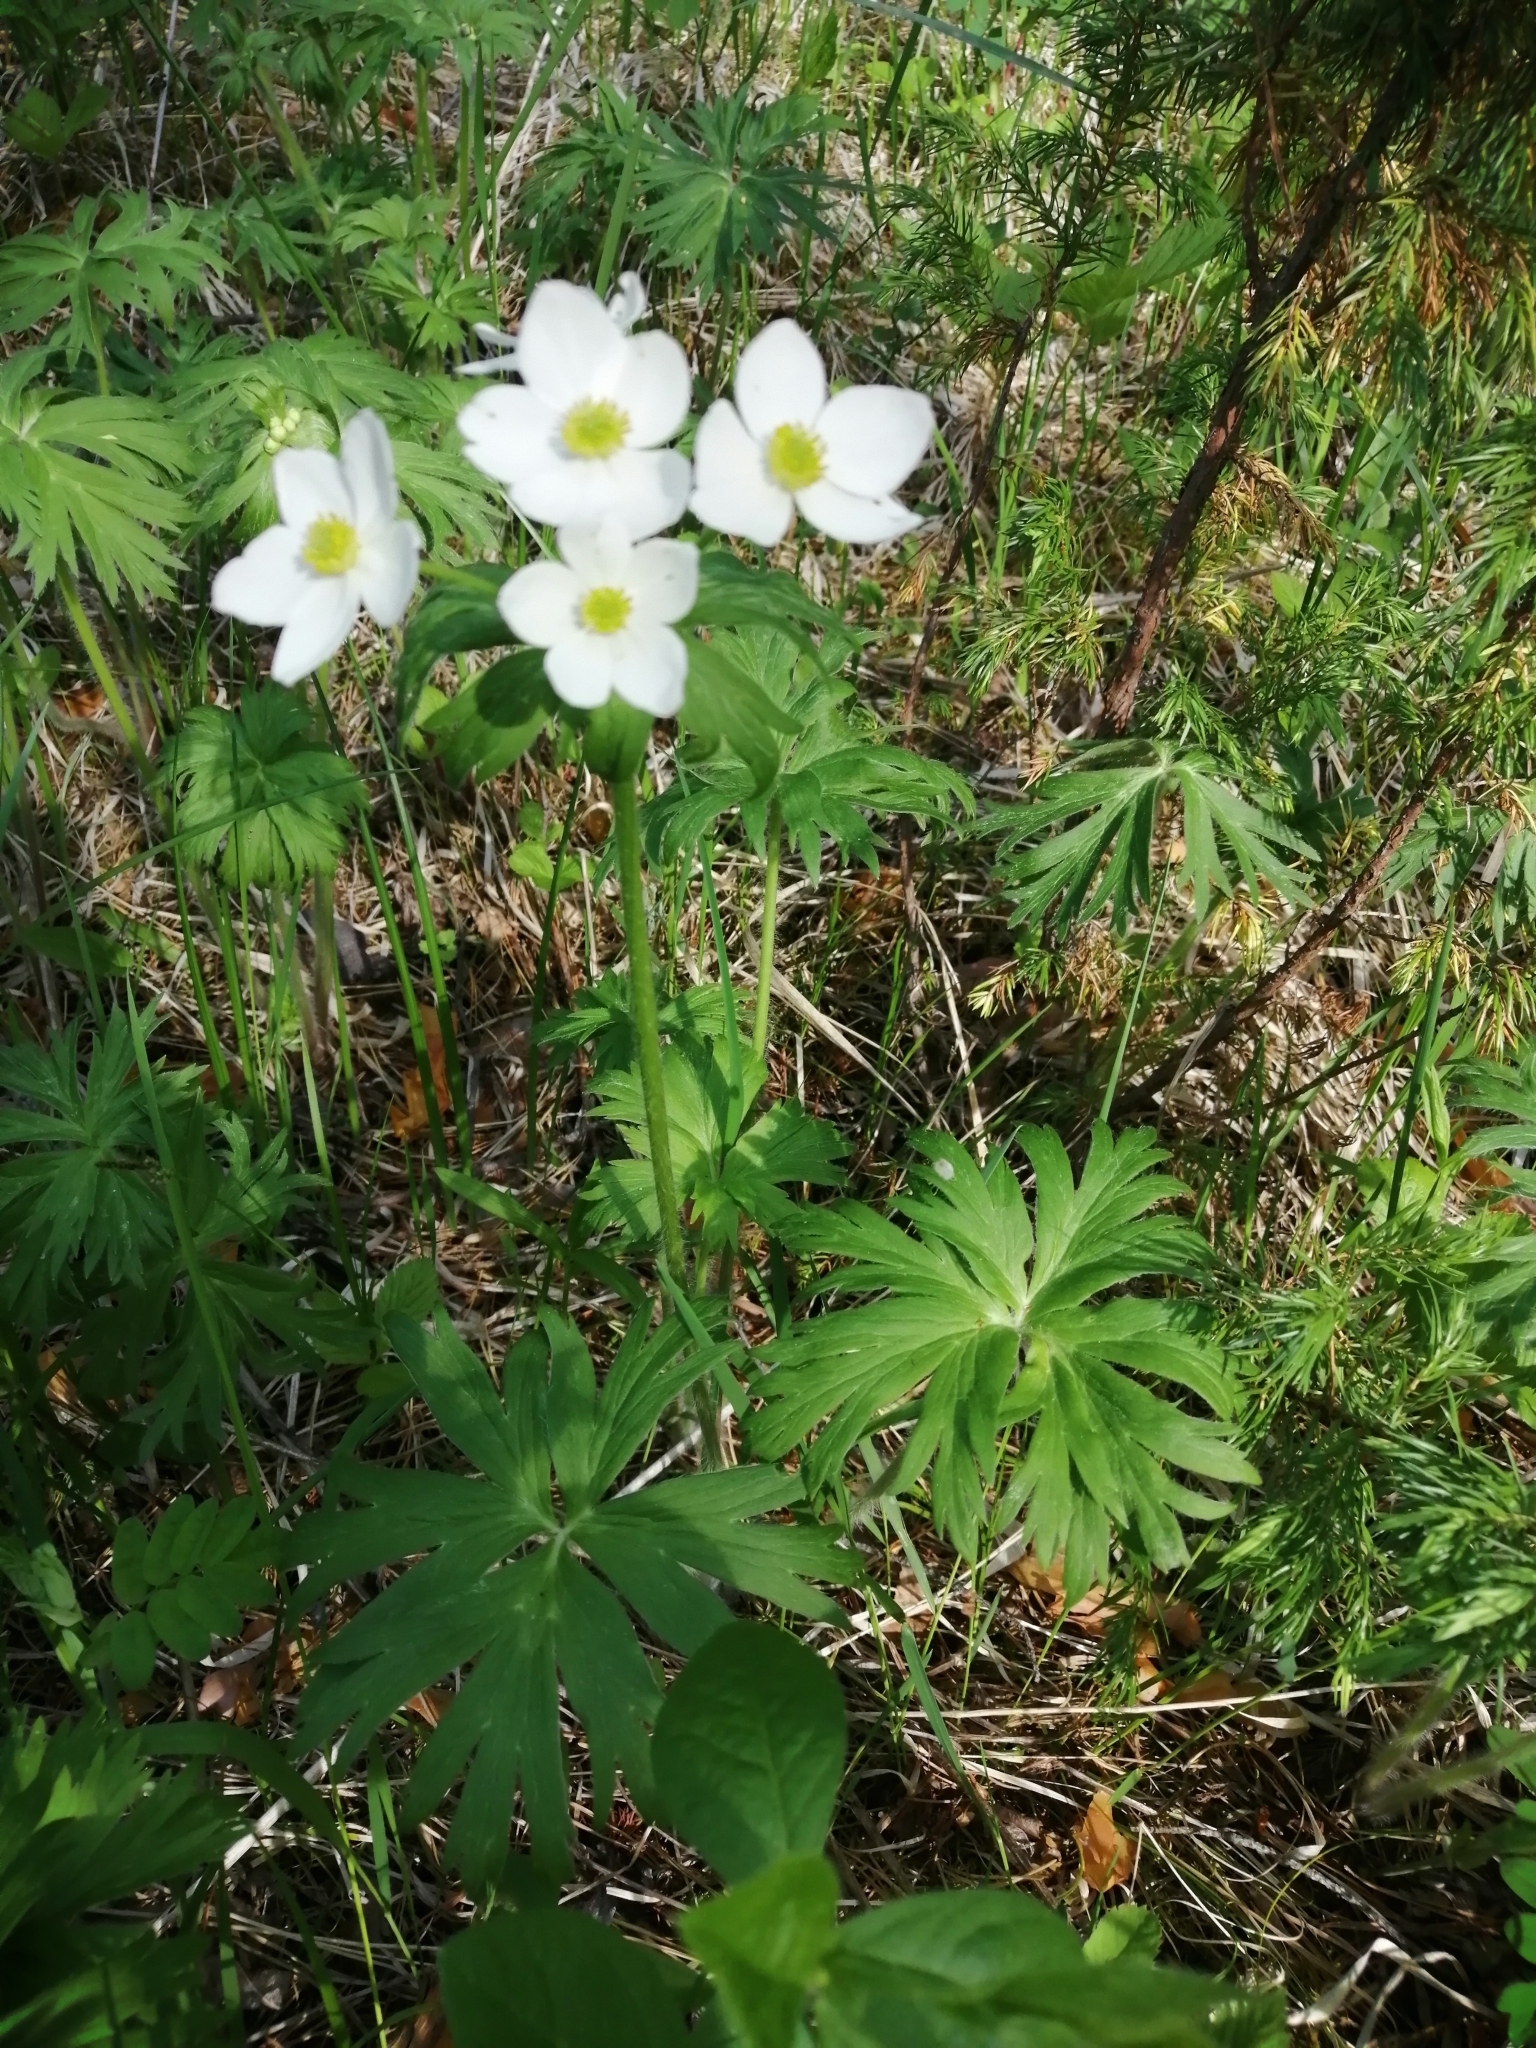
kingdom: Plantae
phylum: Tracheophyta
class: Magnoliopsida
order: Ranunculales
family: Ranunculaceae
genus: Anemonastrum
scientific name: Anemonastrum narcissiflorum
